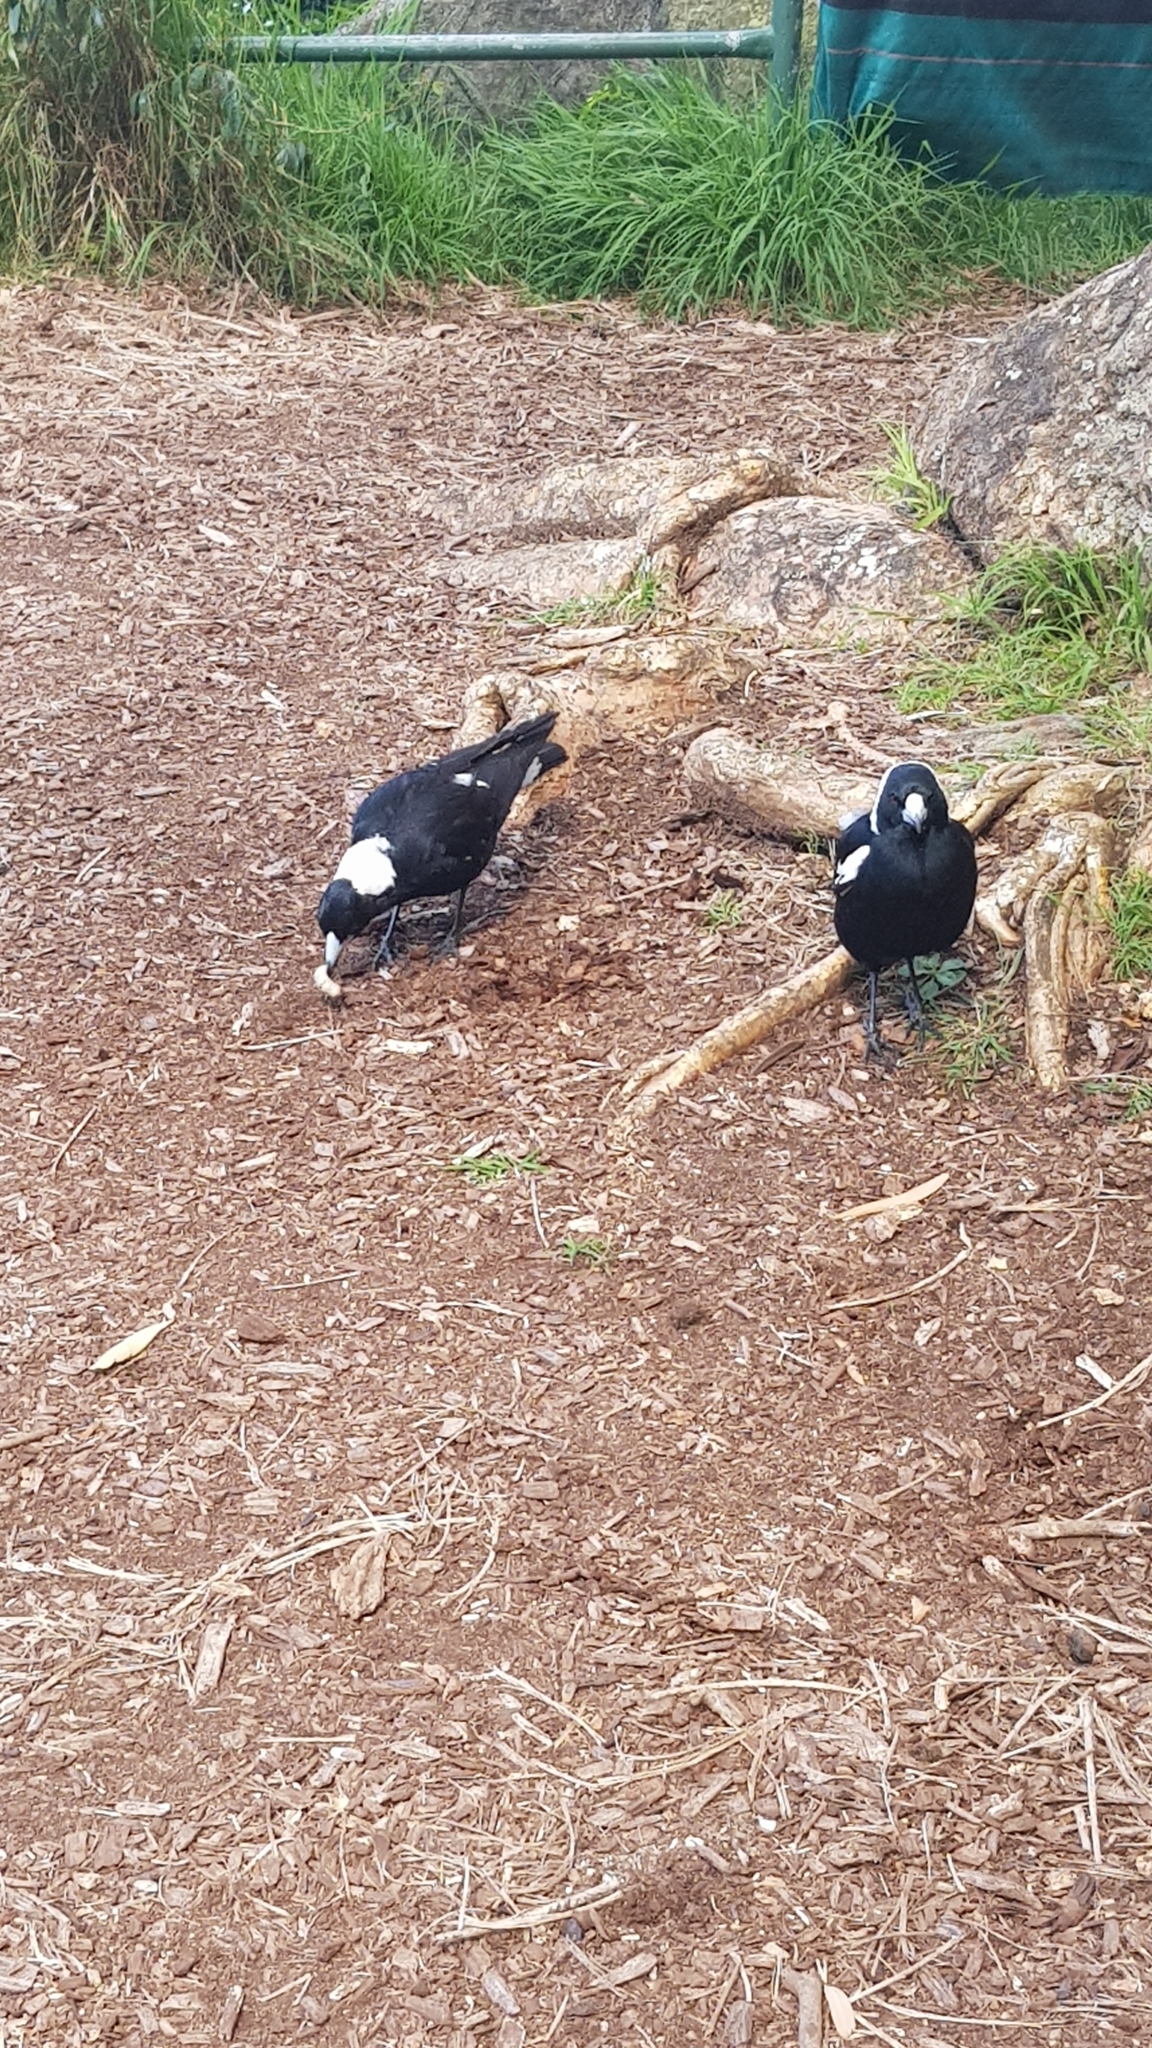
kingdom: Animalia
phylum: Chordata
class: Aves
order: Passeriformes
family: Cracticidae
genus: Gymnorhina
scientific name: Gymnorhina tibicen
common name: Australian magpie
